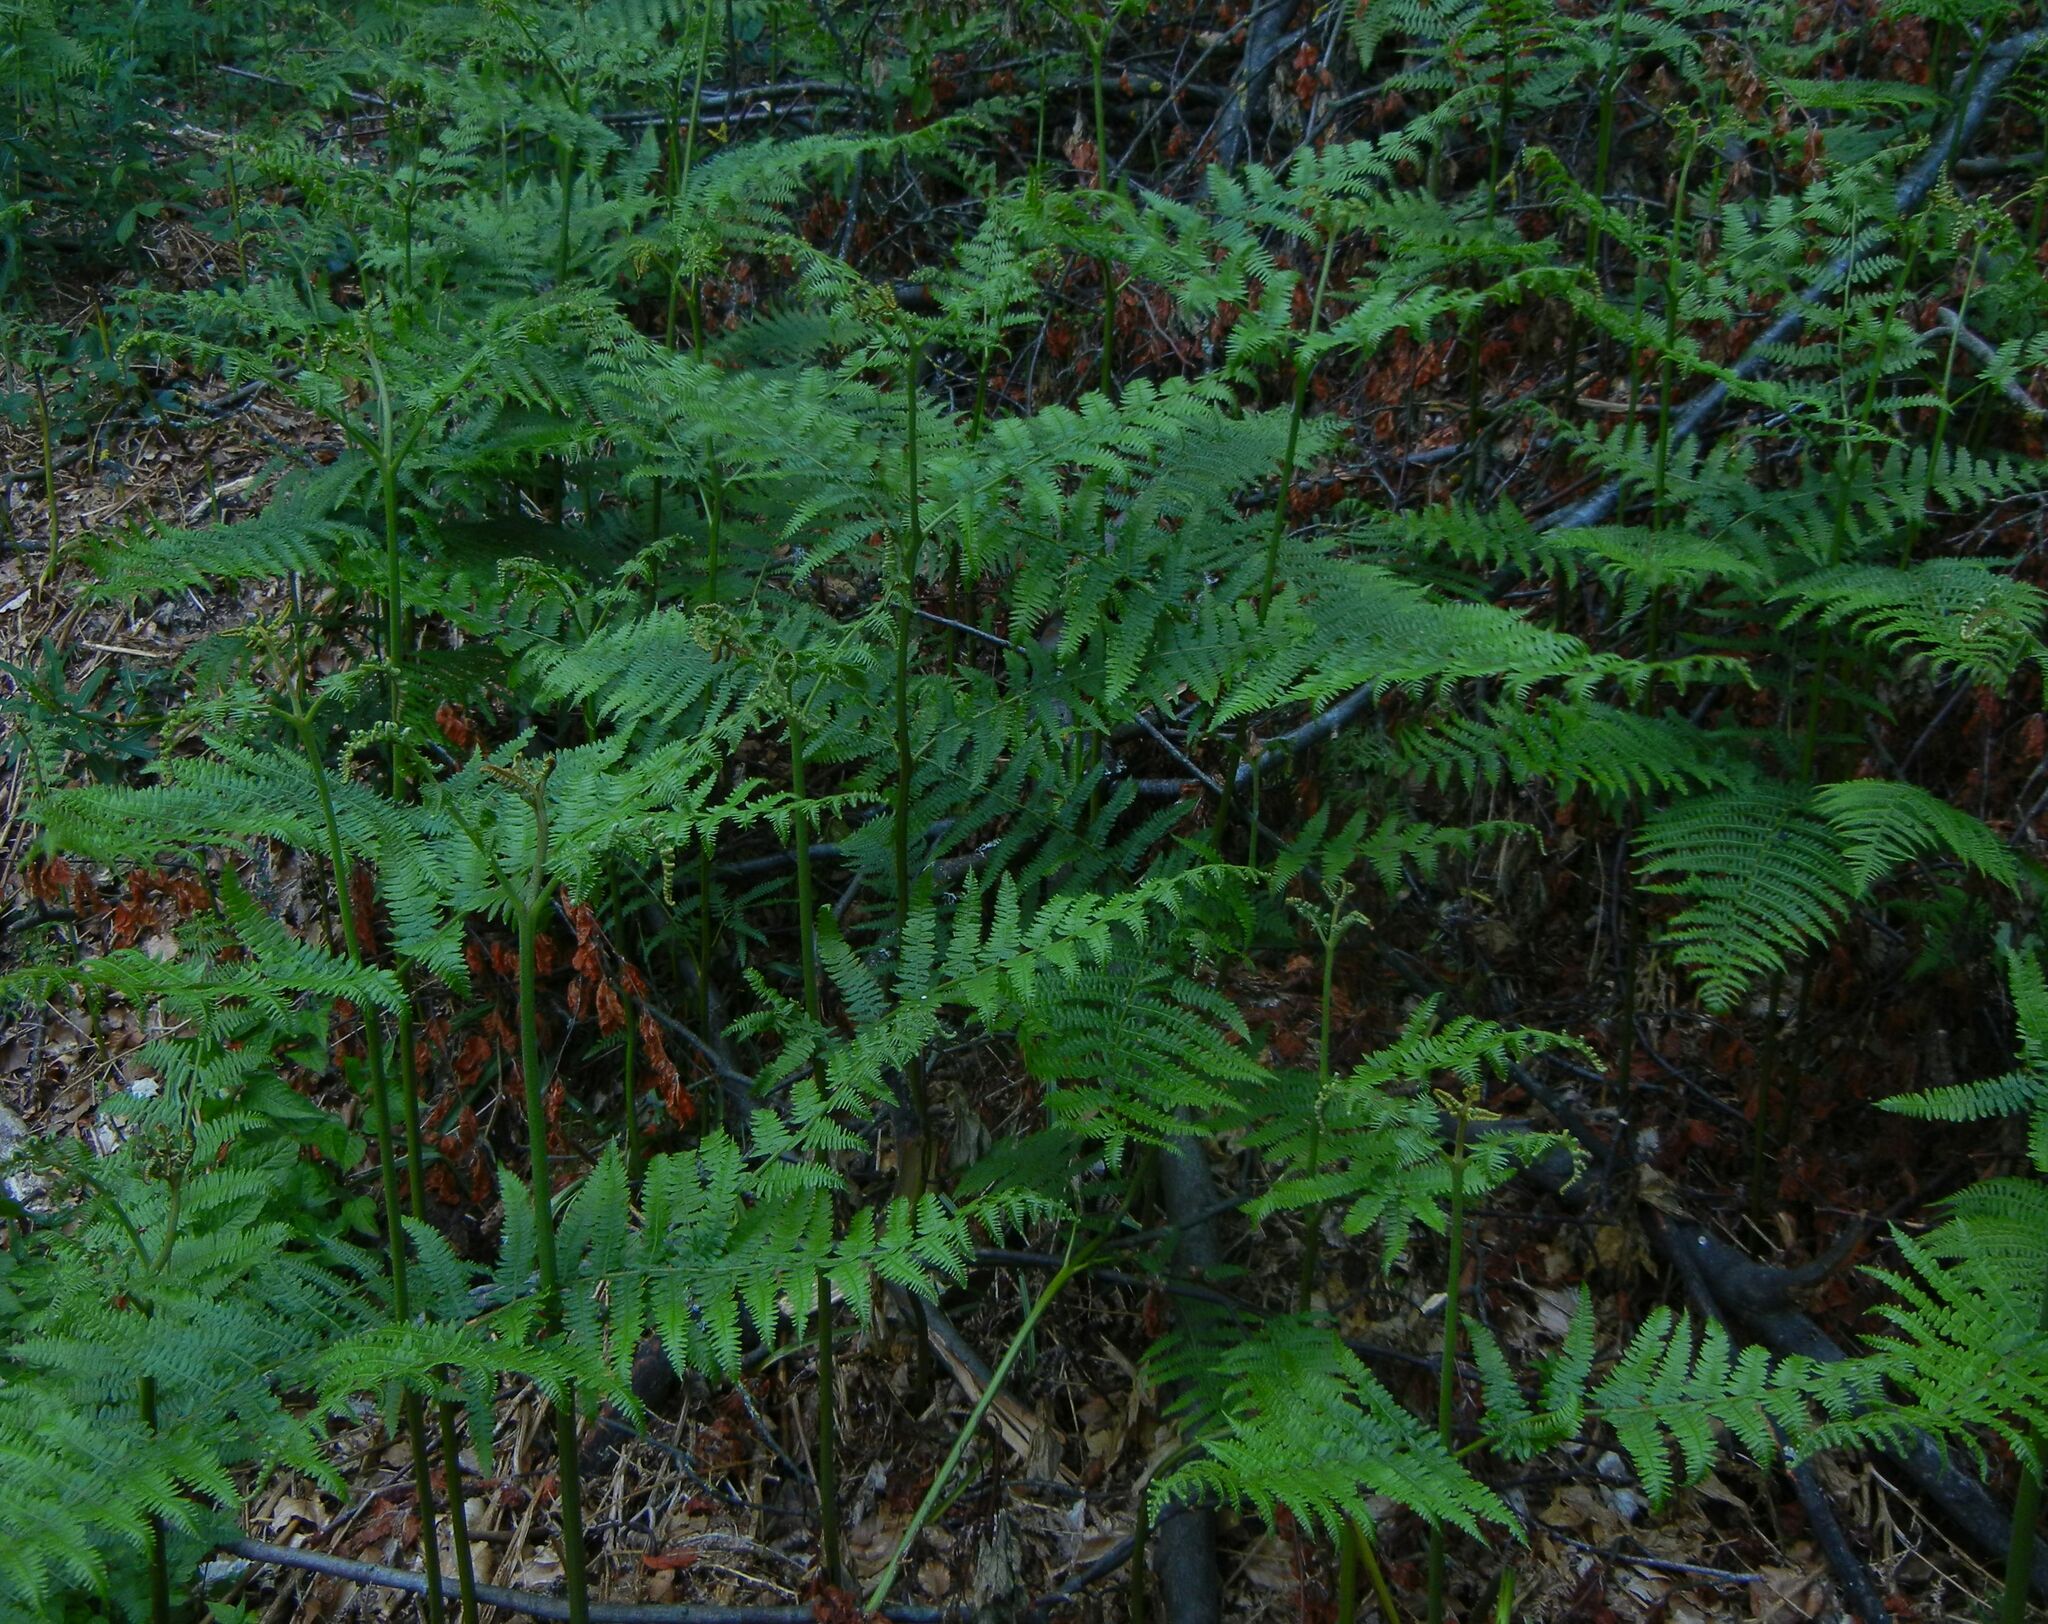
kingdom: Plantae
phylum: Tracheophyta
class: Polypodiopsida
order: Polypodiales
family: Dennstaedtiaceae
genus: Pteridium
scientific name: Pteridium aquilinum
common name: Bracken
